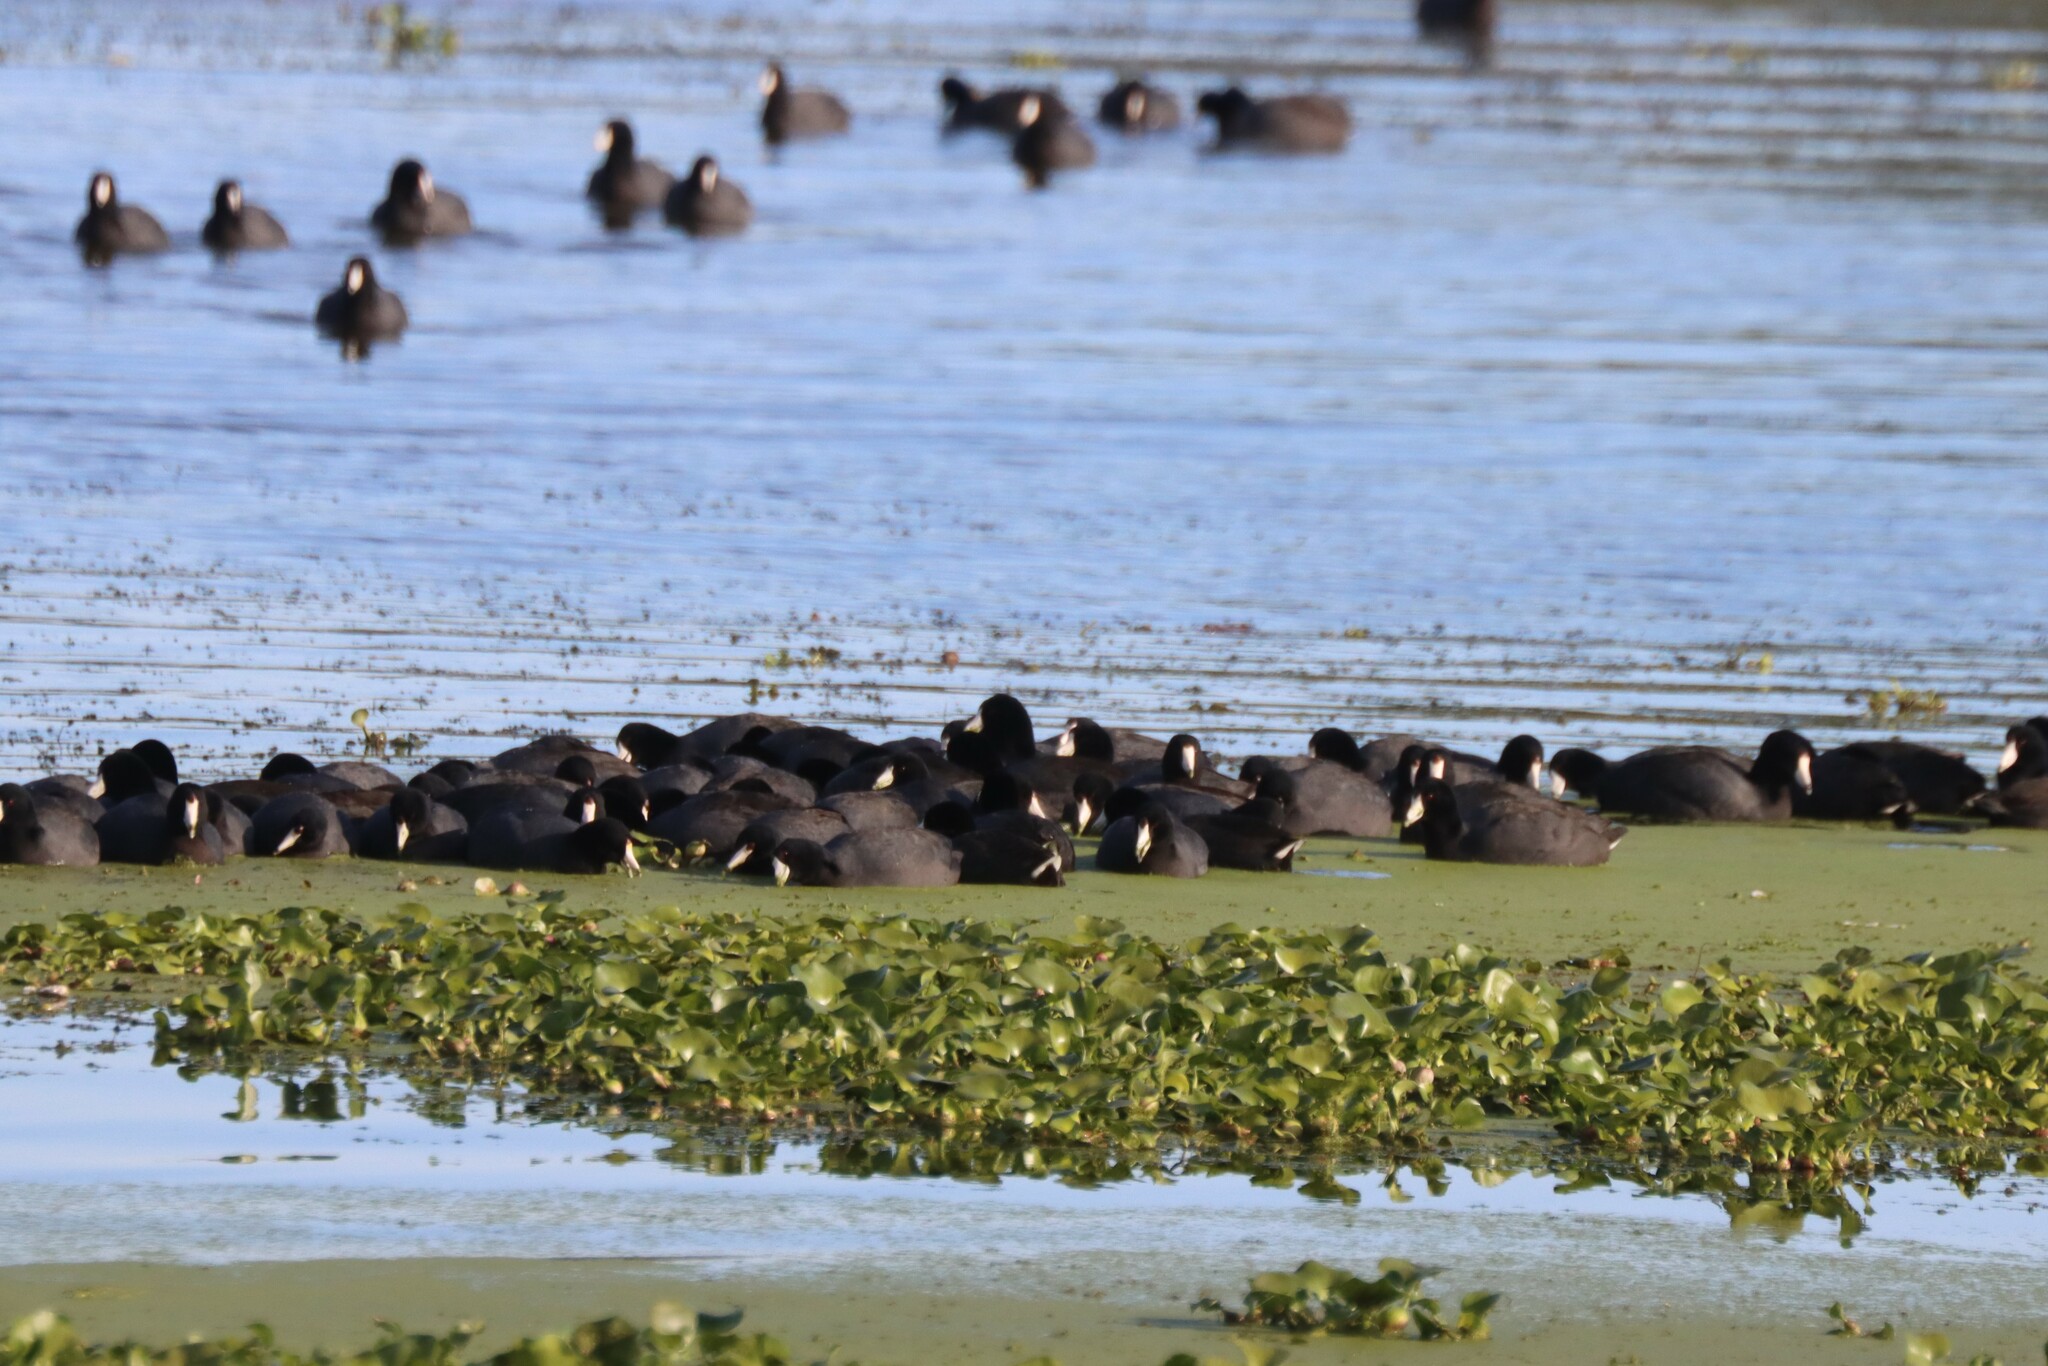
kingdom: Animalia
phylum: Chordata
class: Aves
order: Gruiformes
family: Rallidae
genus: Fulica
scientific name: Fulica americana
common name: American coot
